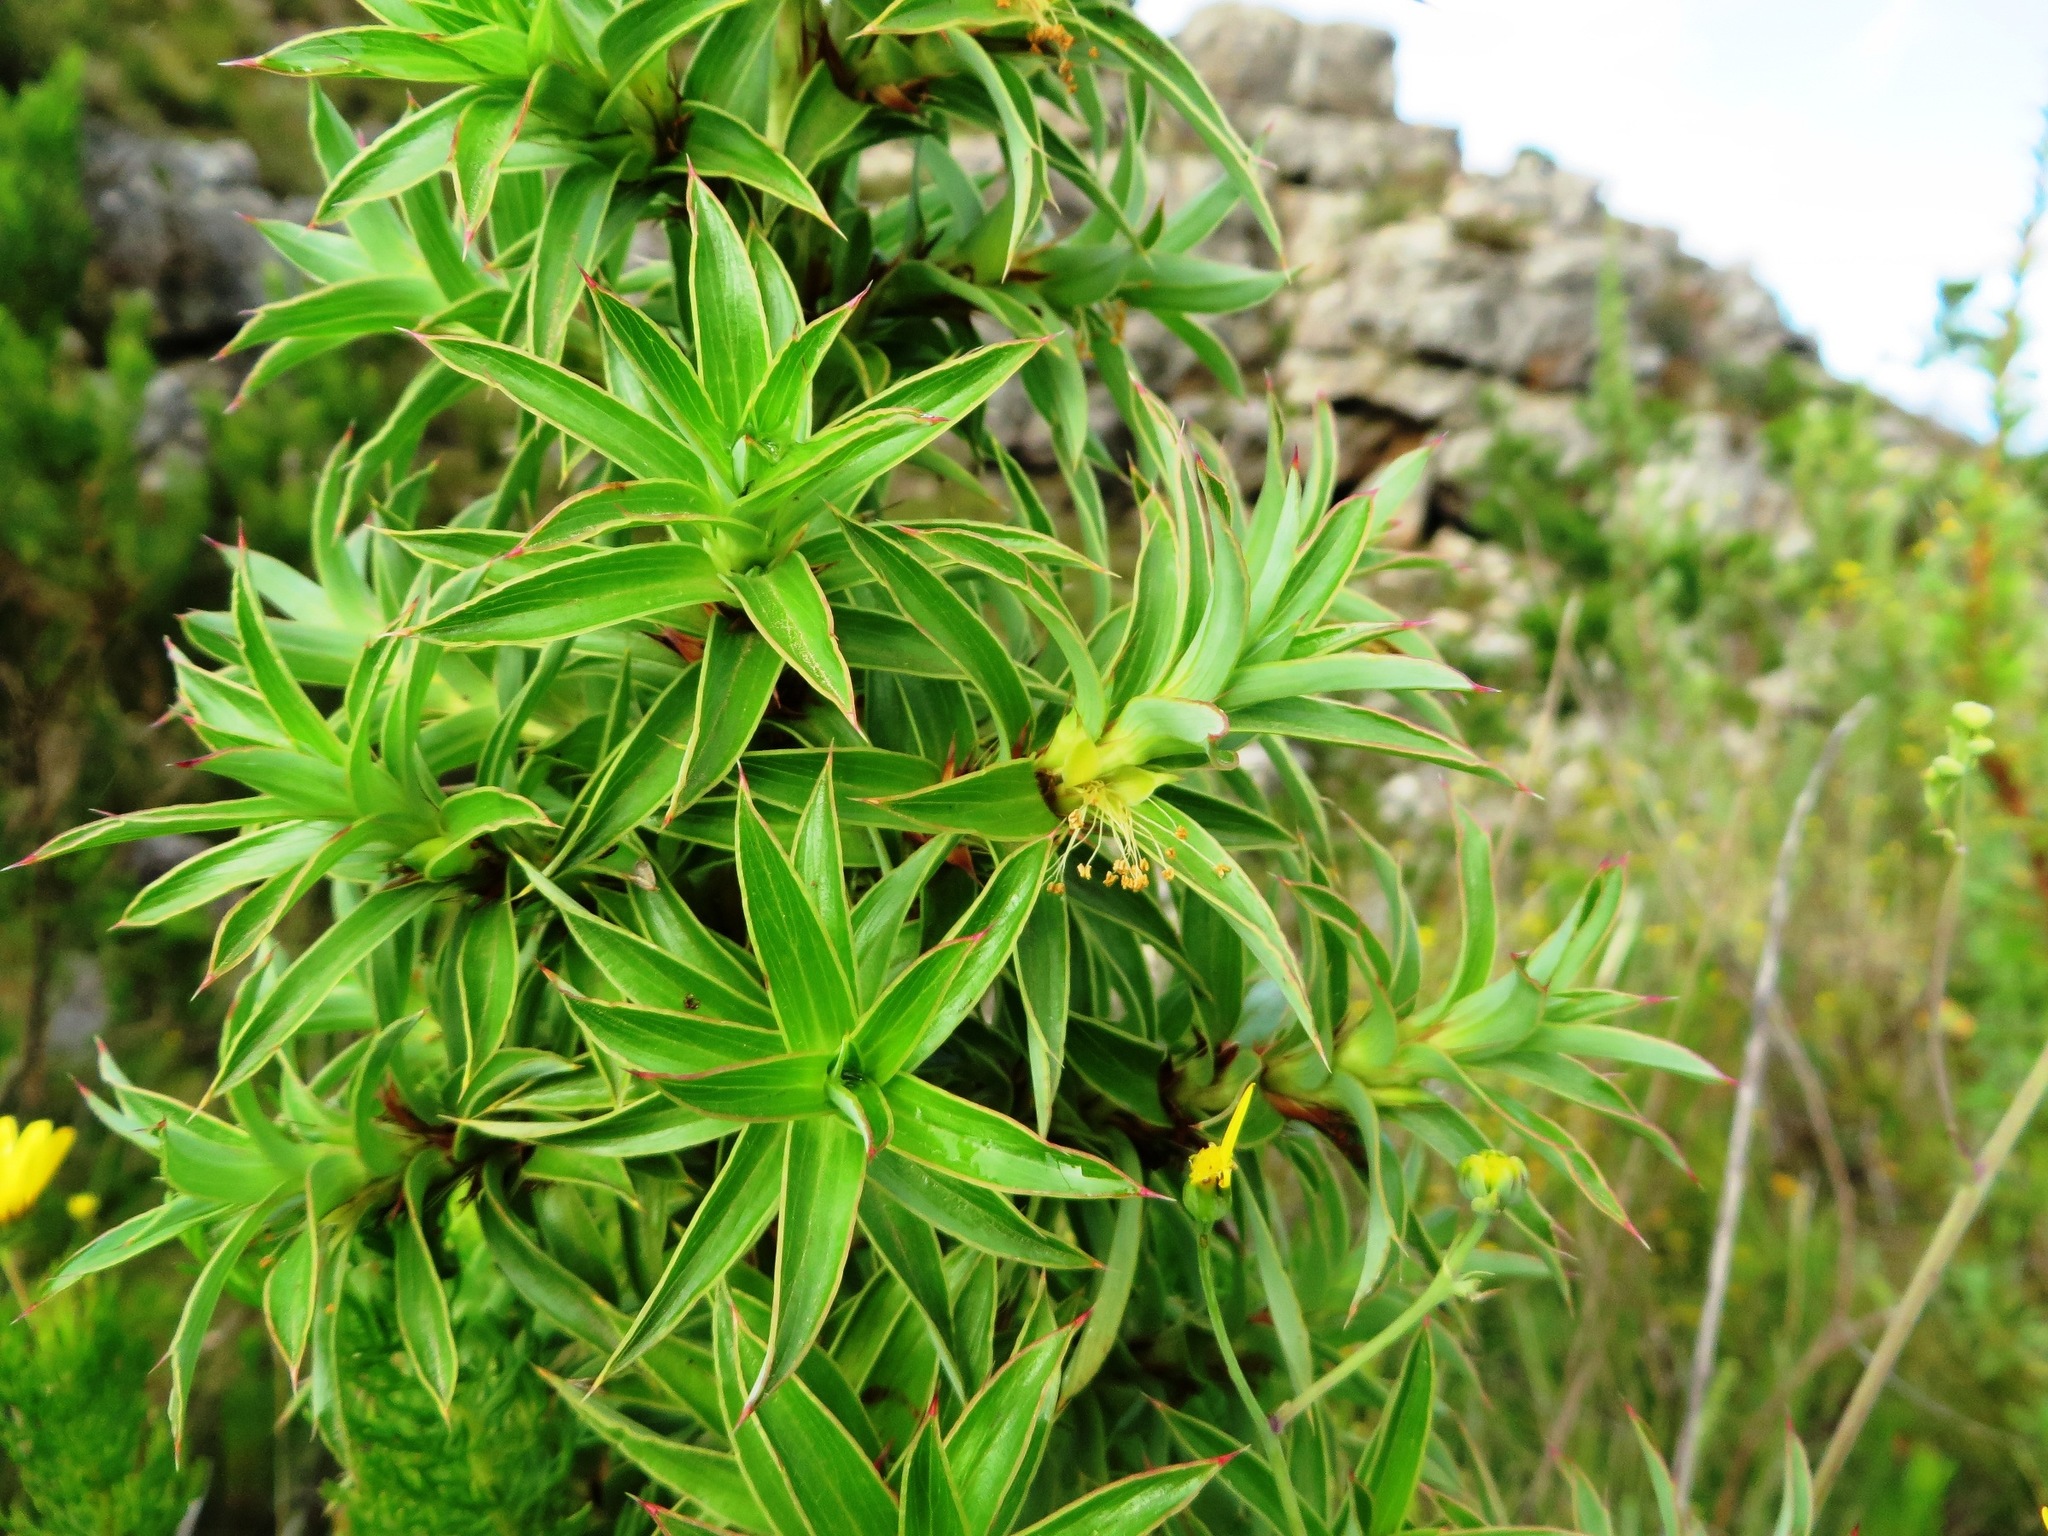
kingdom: Plantae
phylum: Tracheophyta
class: Magnoliopsida
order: Rosales
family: Rosaceae
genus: Cliffortia
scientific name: Cliffortia theodori-friesii
